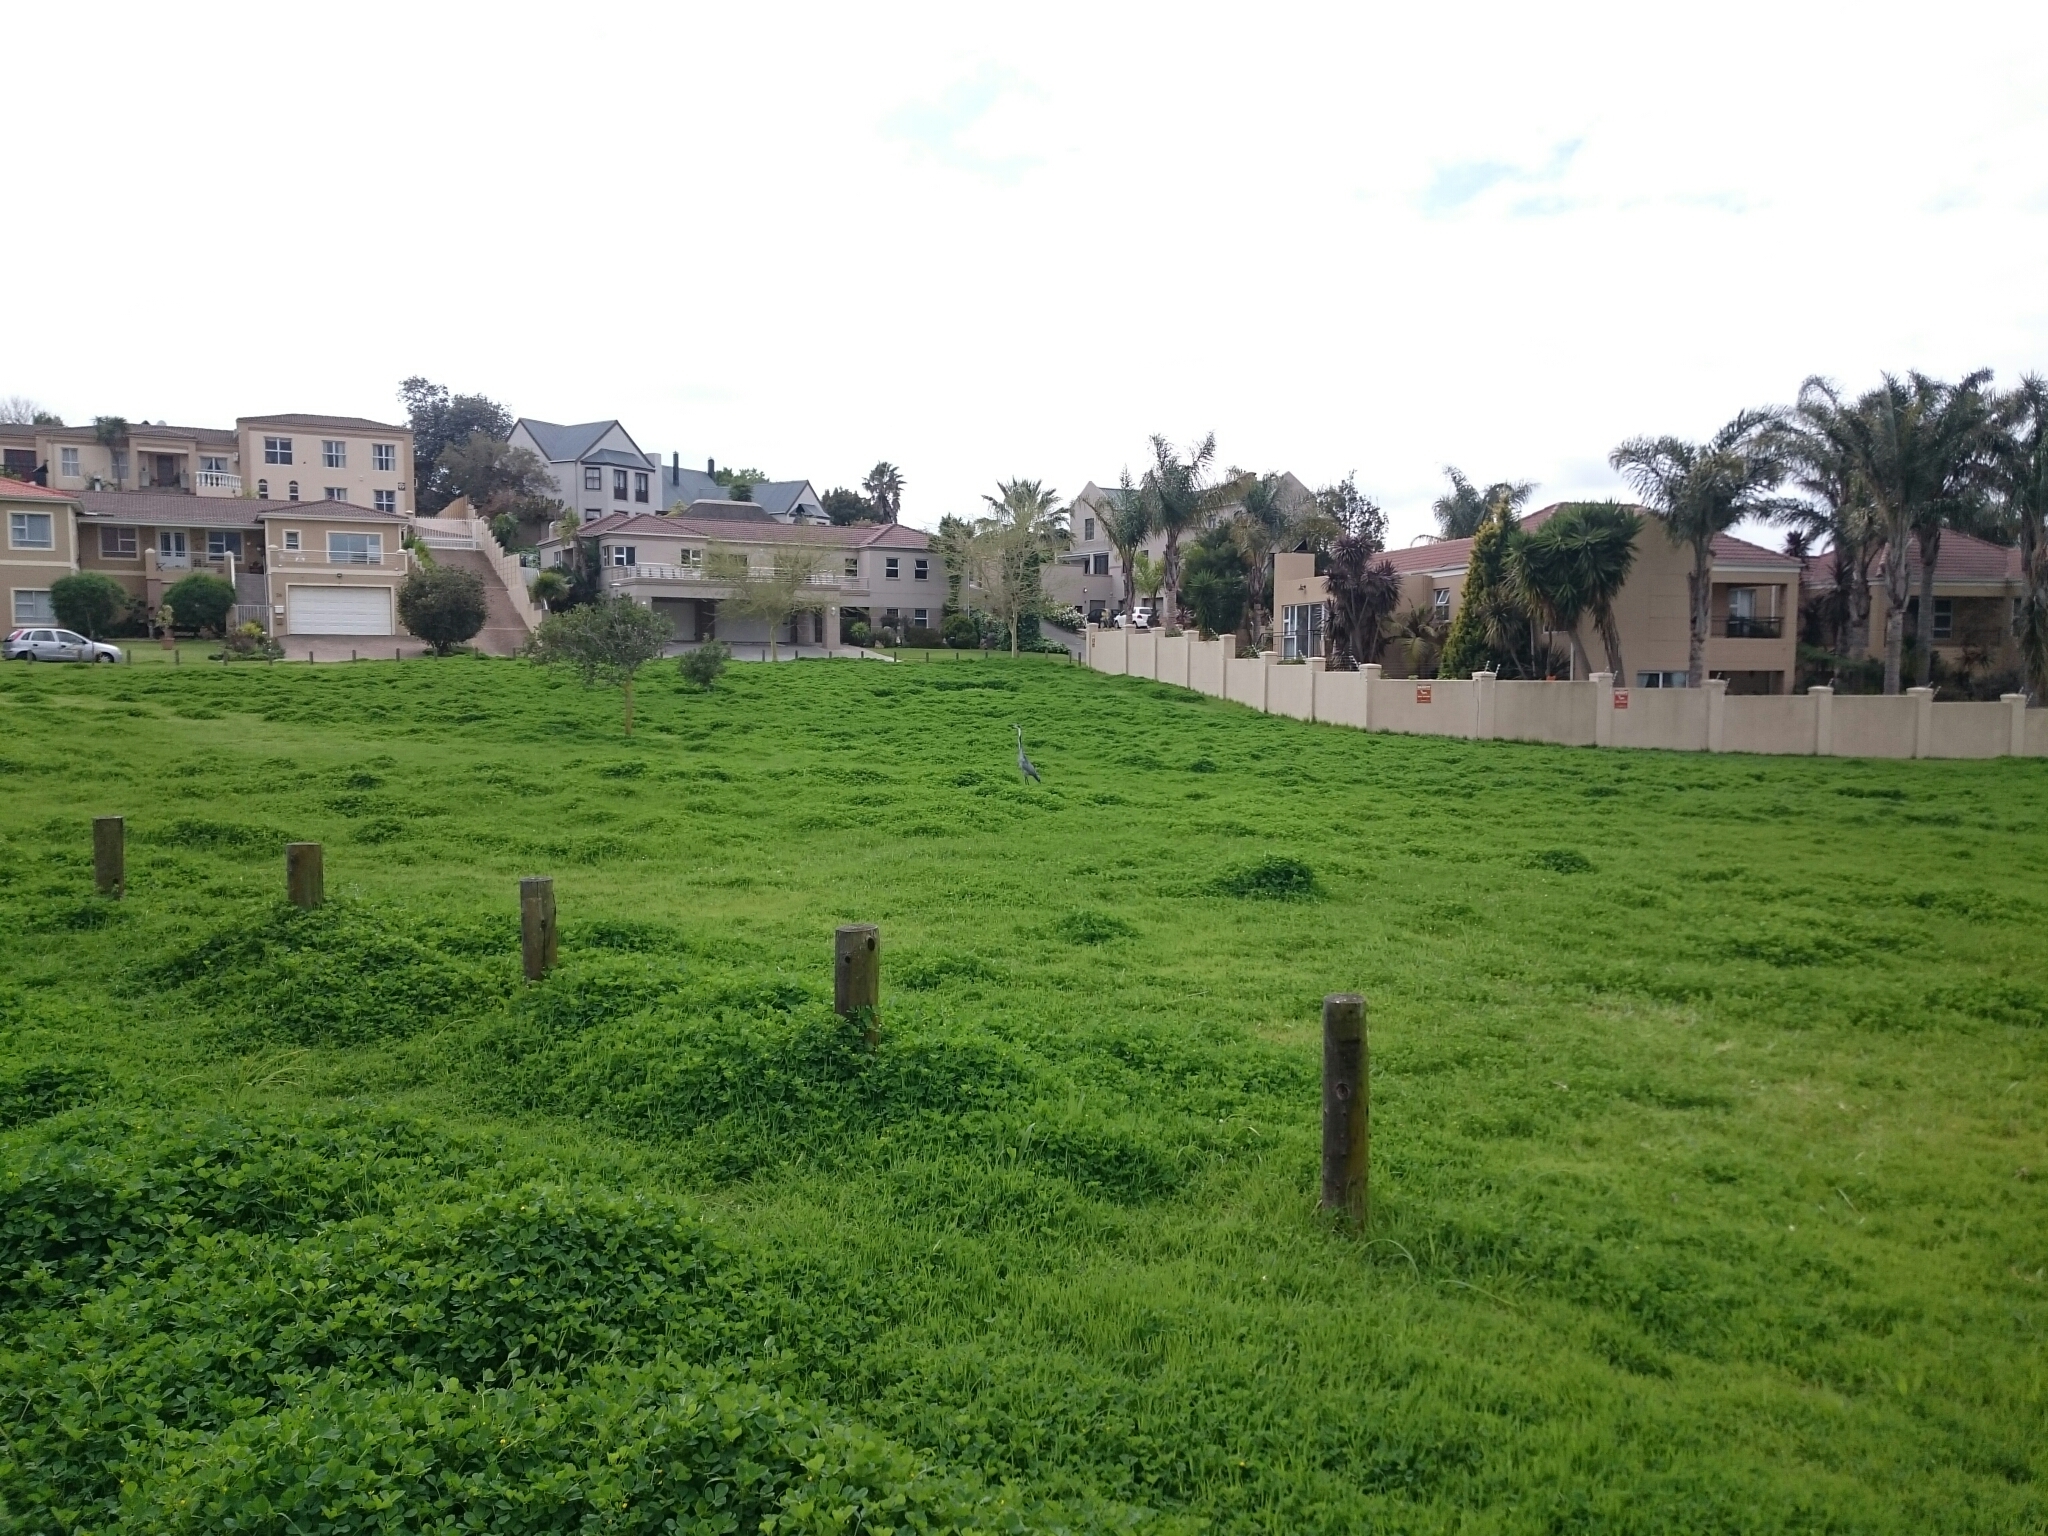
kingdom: Animalia
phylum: Chordata
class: Aves
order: Pelecaniformes
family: Ardeidae
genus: Ardea
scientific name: Ardea melanocephala
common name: Black-headed heron
